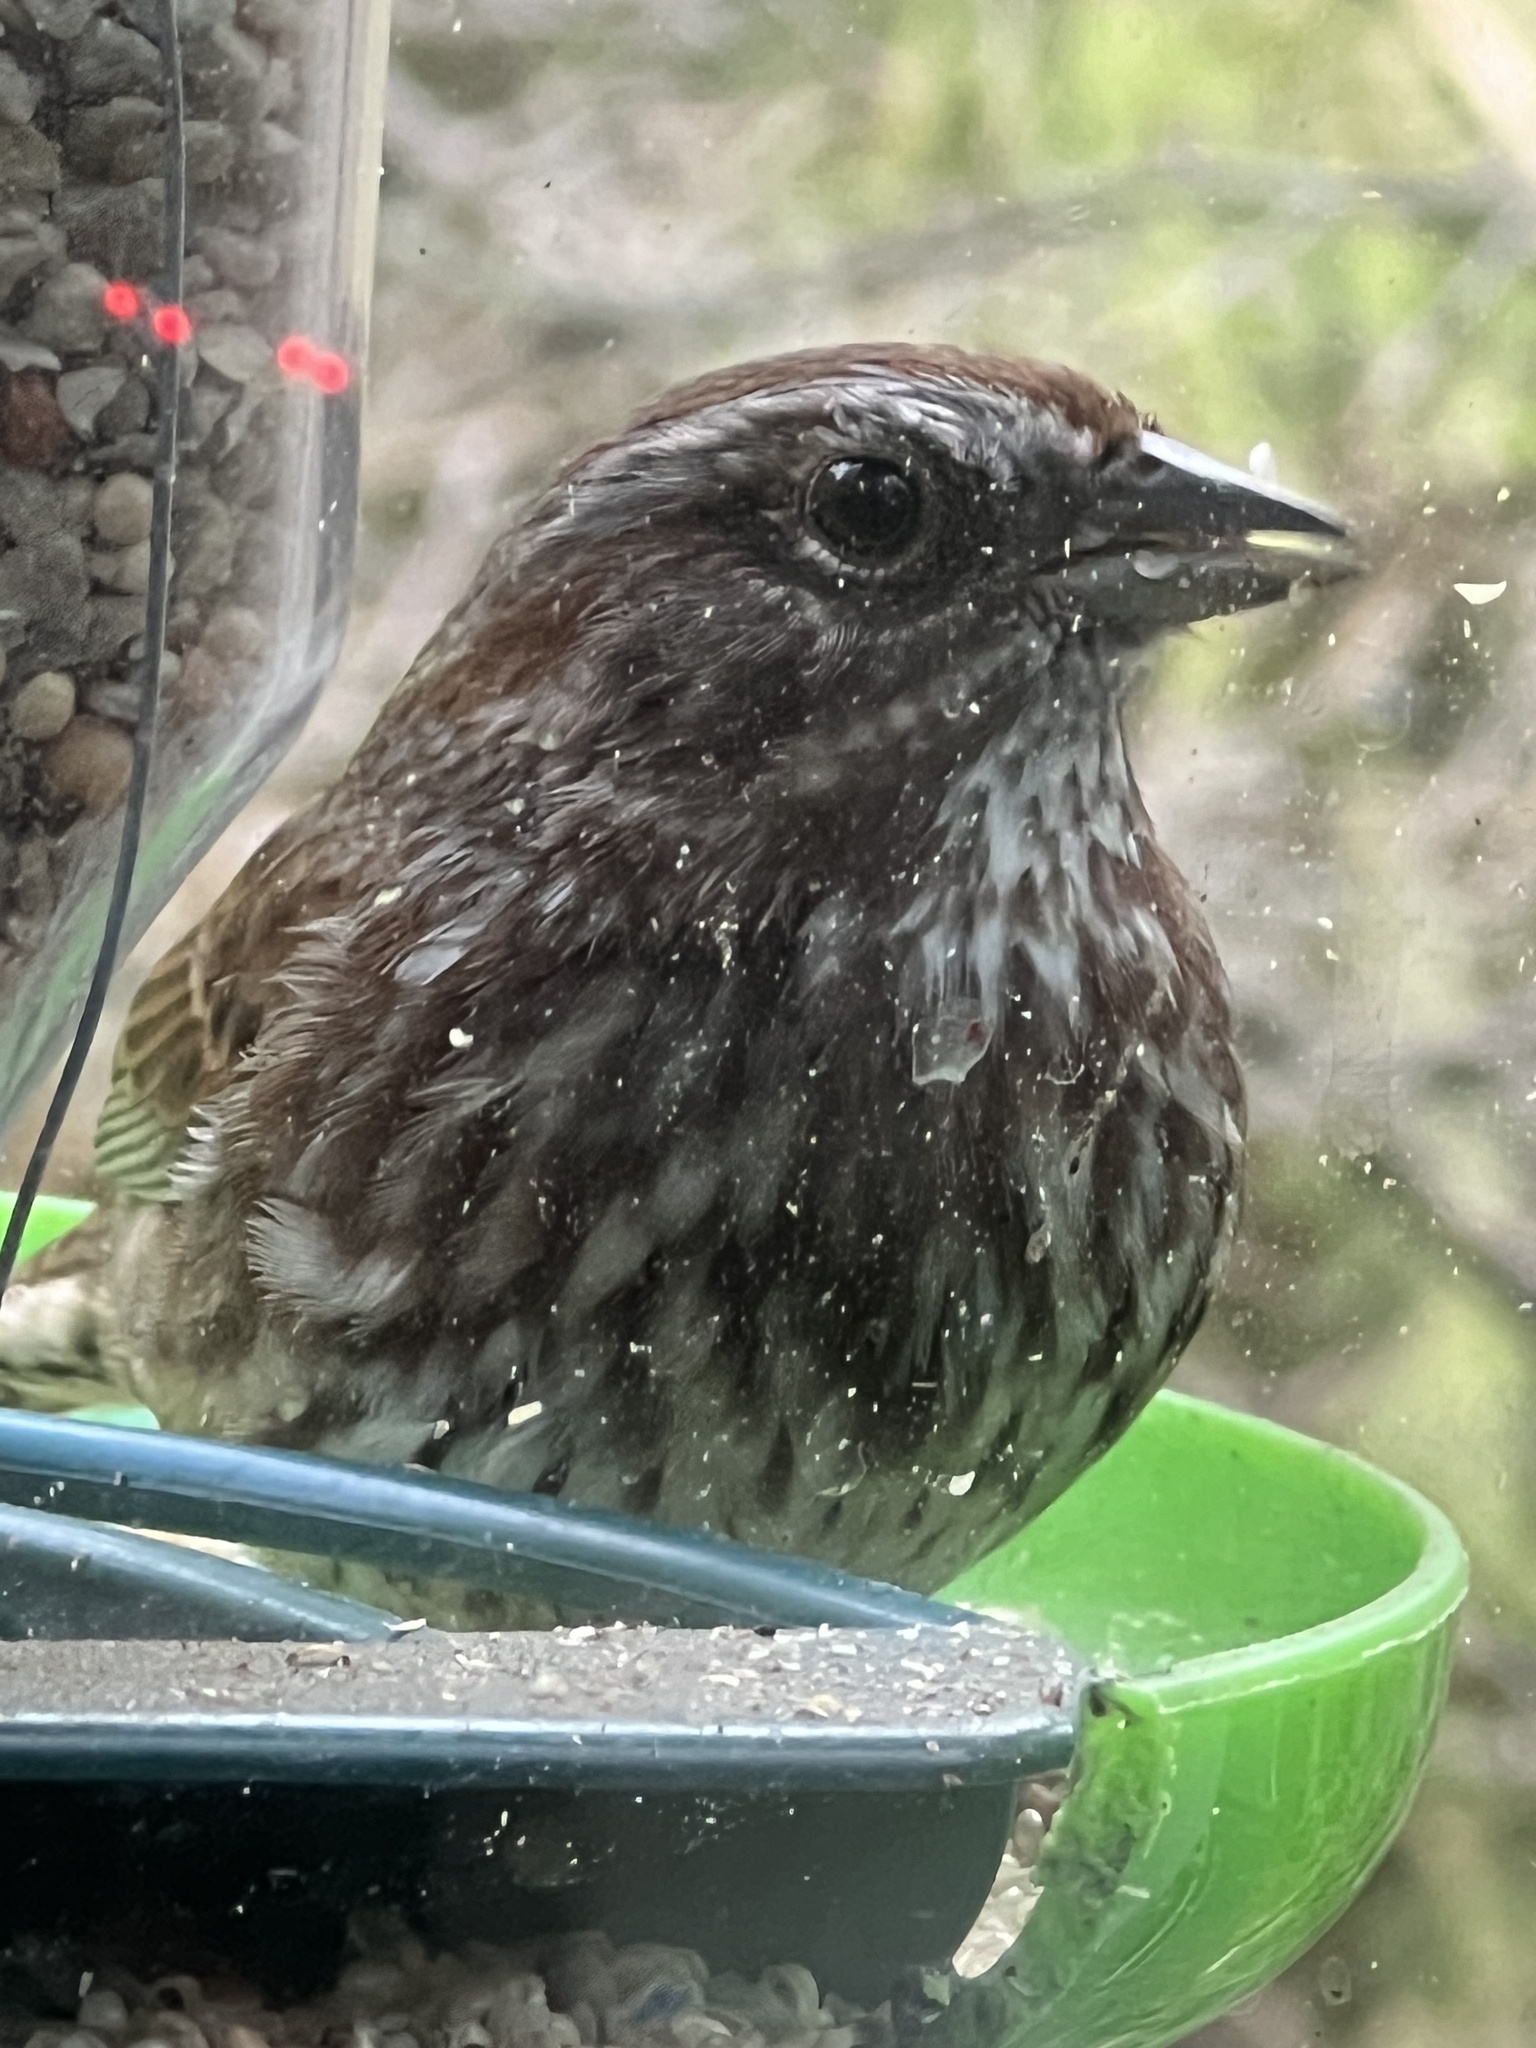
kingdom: Animalia
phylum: Chordata
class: Aves
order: Passeriformes
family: Passerellidae
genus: Melospiza
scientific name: Melospiza melodia
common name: Song sparrow
